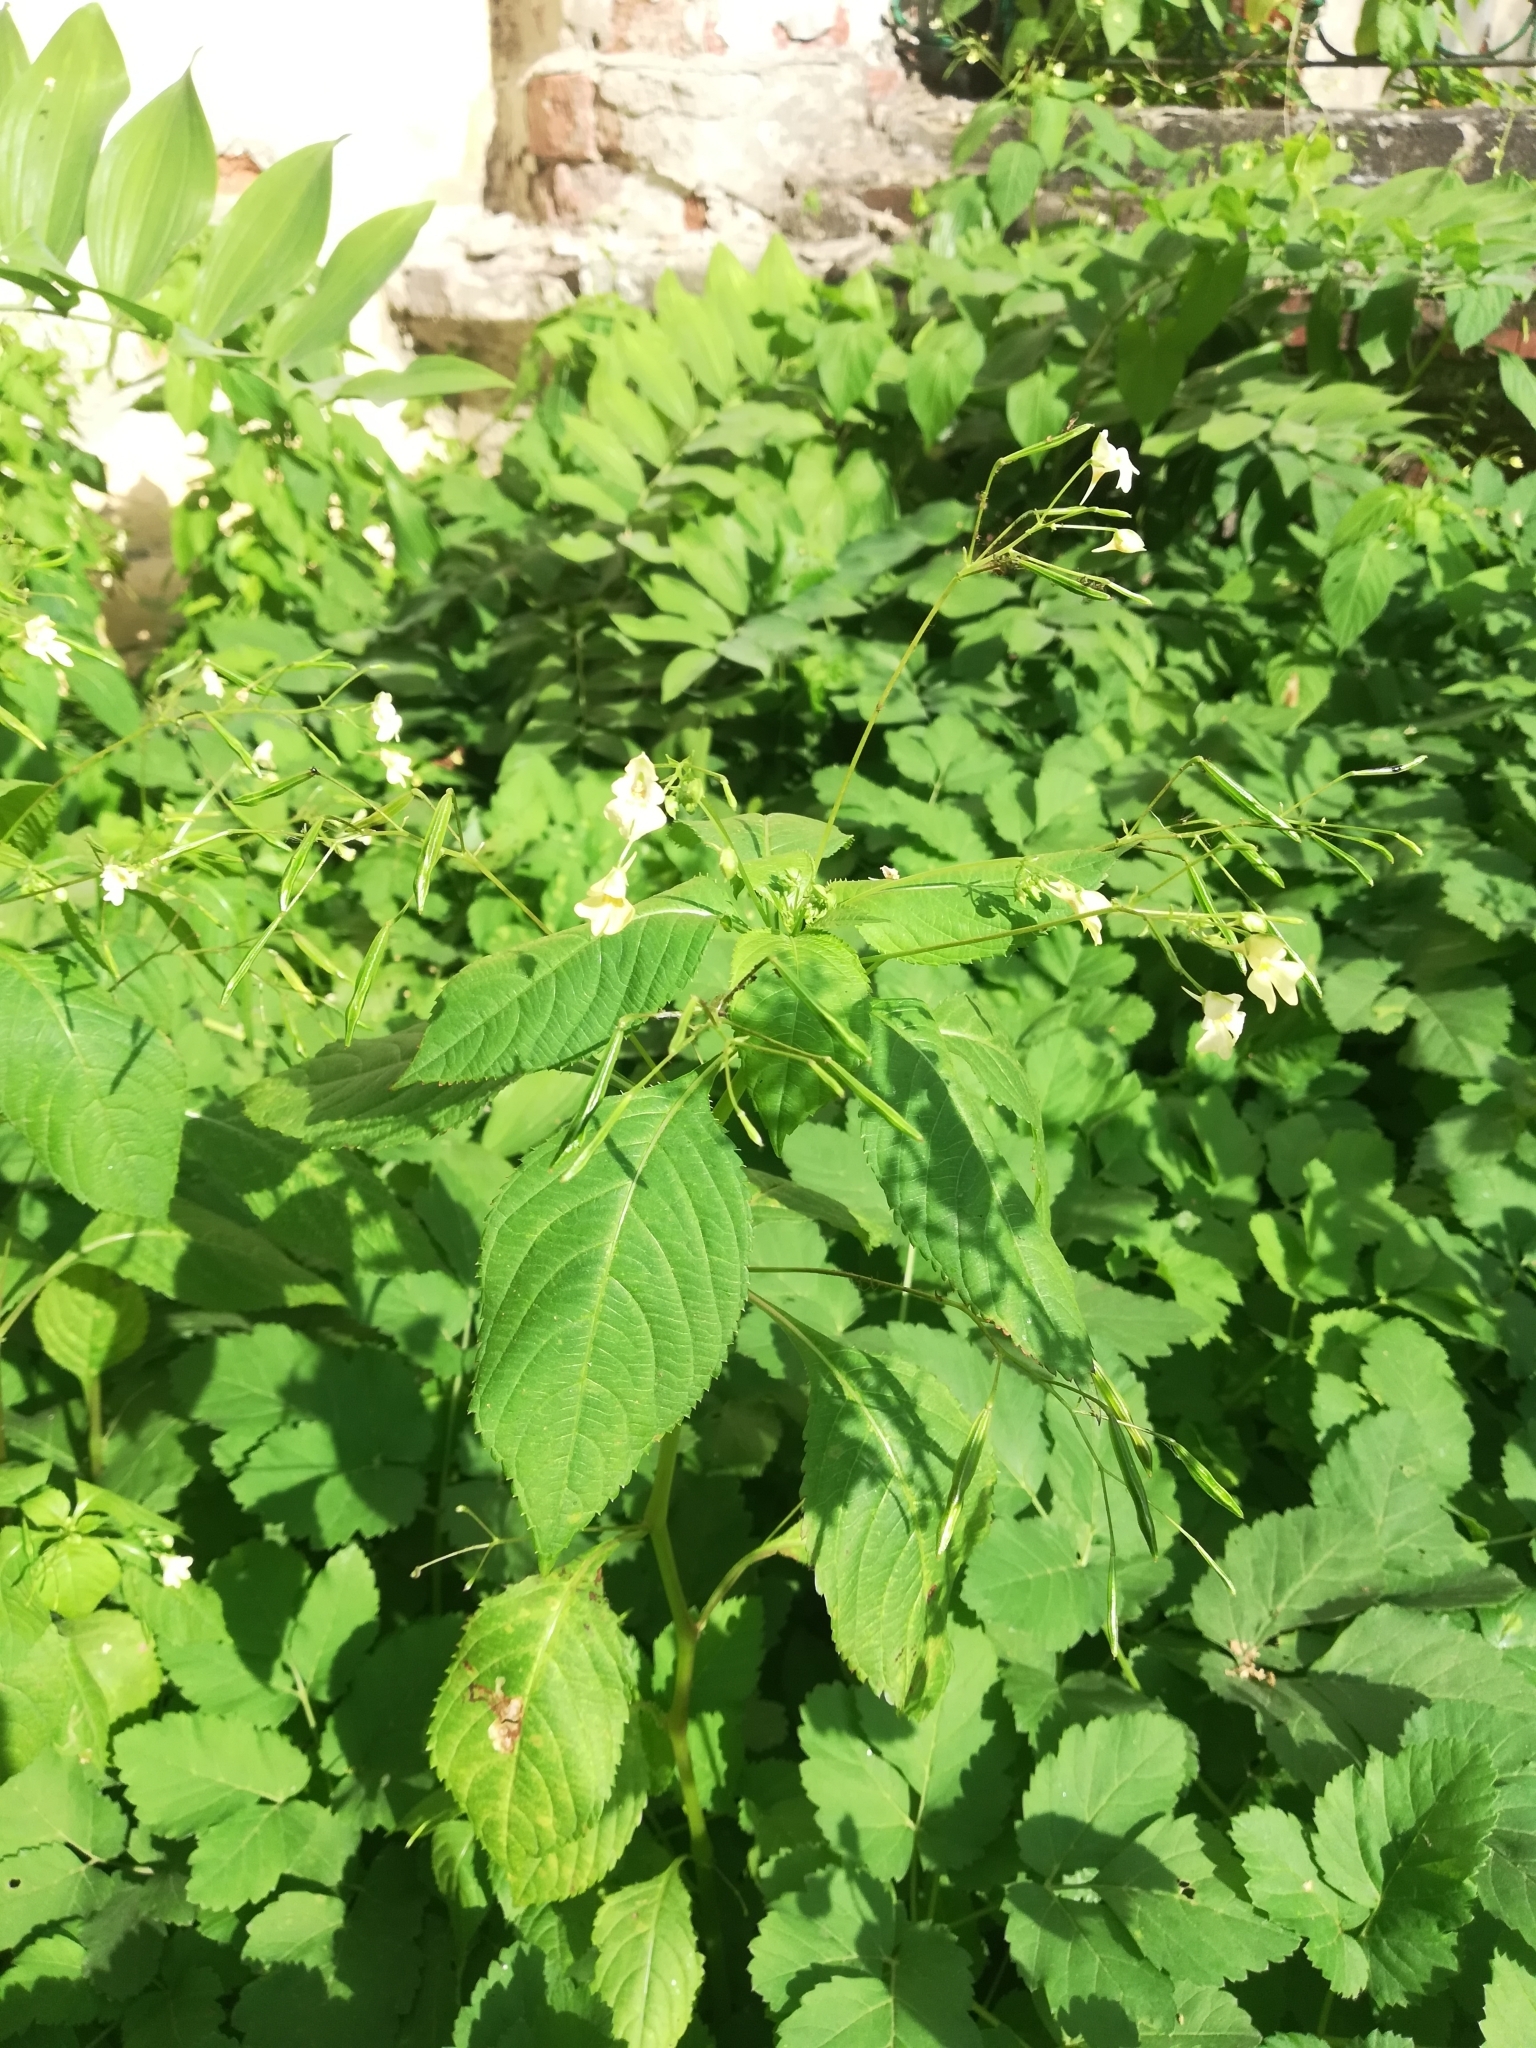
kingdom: Plantae
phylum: Tracheophyta
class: Magnoliopsida
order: Ericales
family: Balsaminaceae
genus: Impatiens
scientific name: Impatiens parviflora
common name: Small balsam
